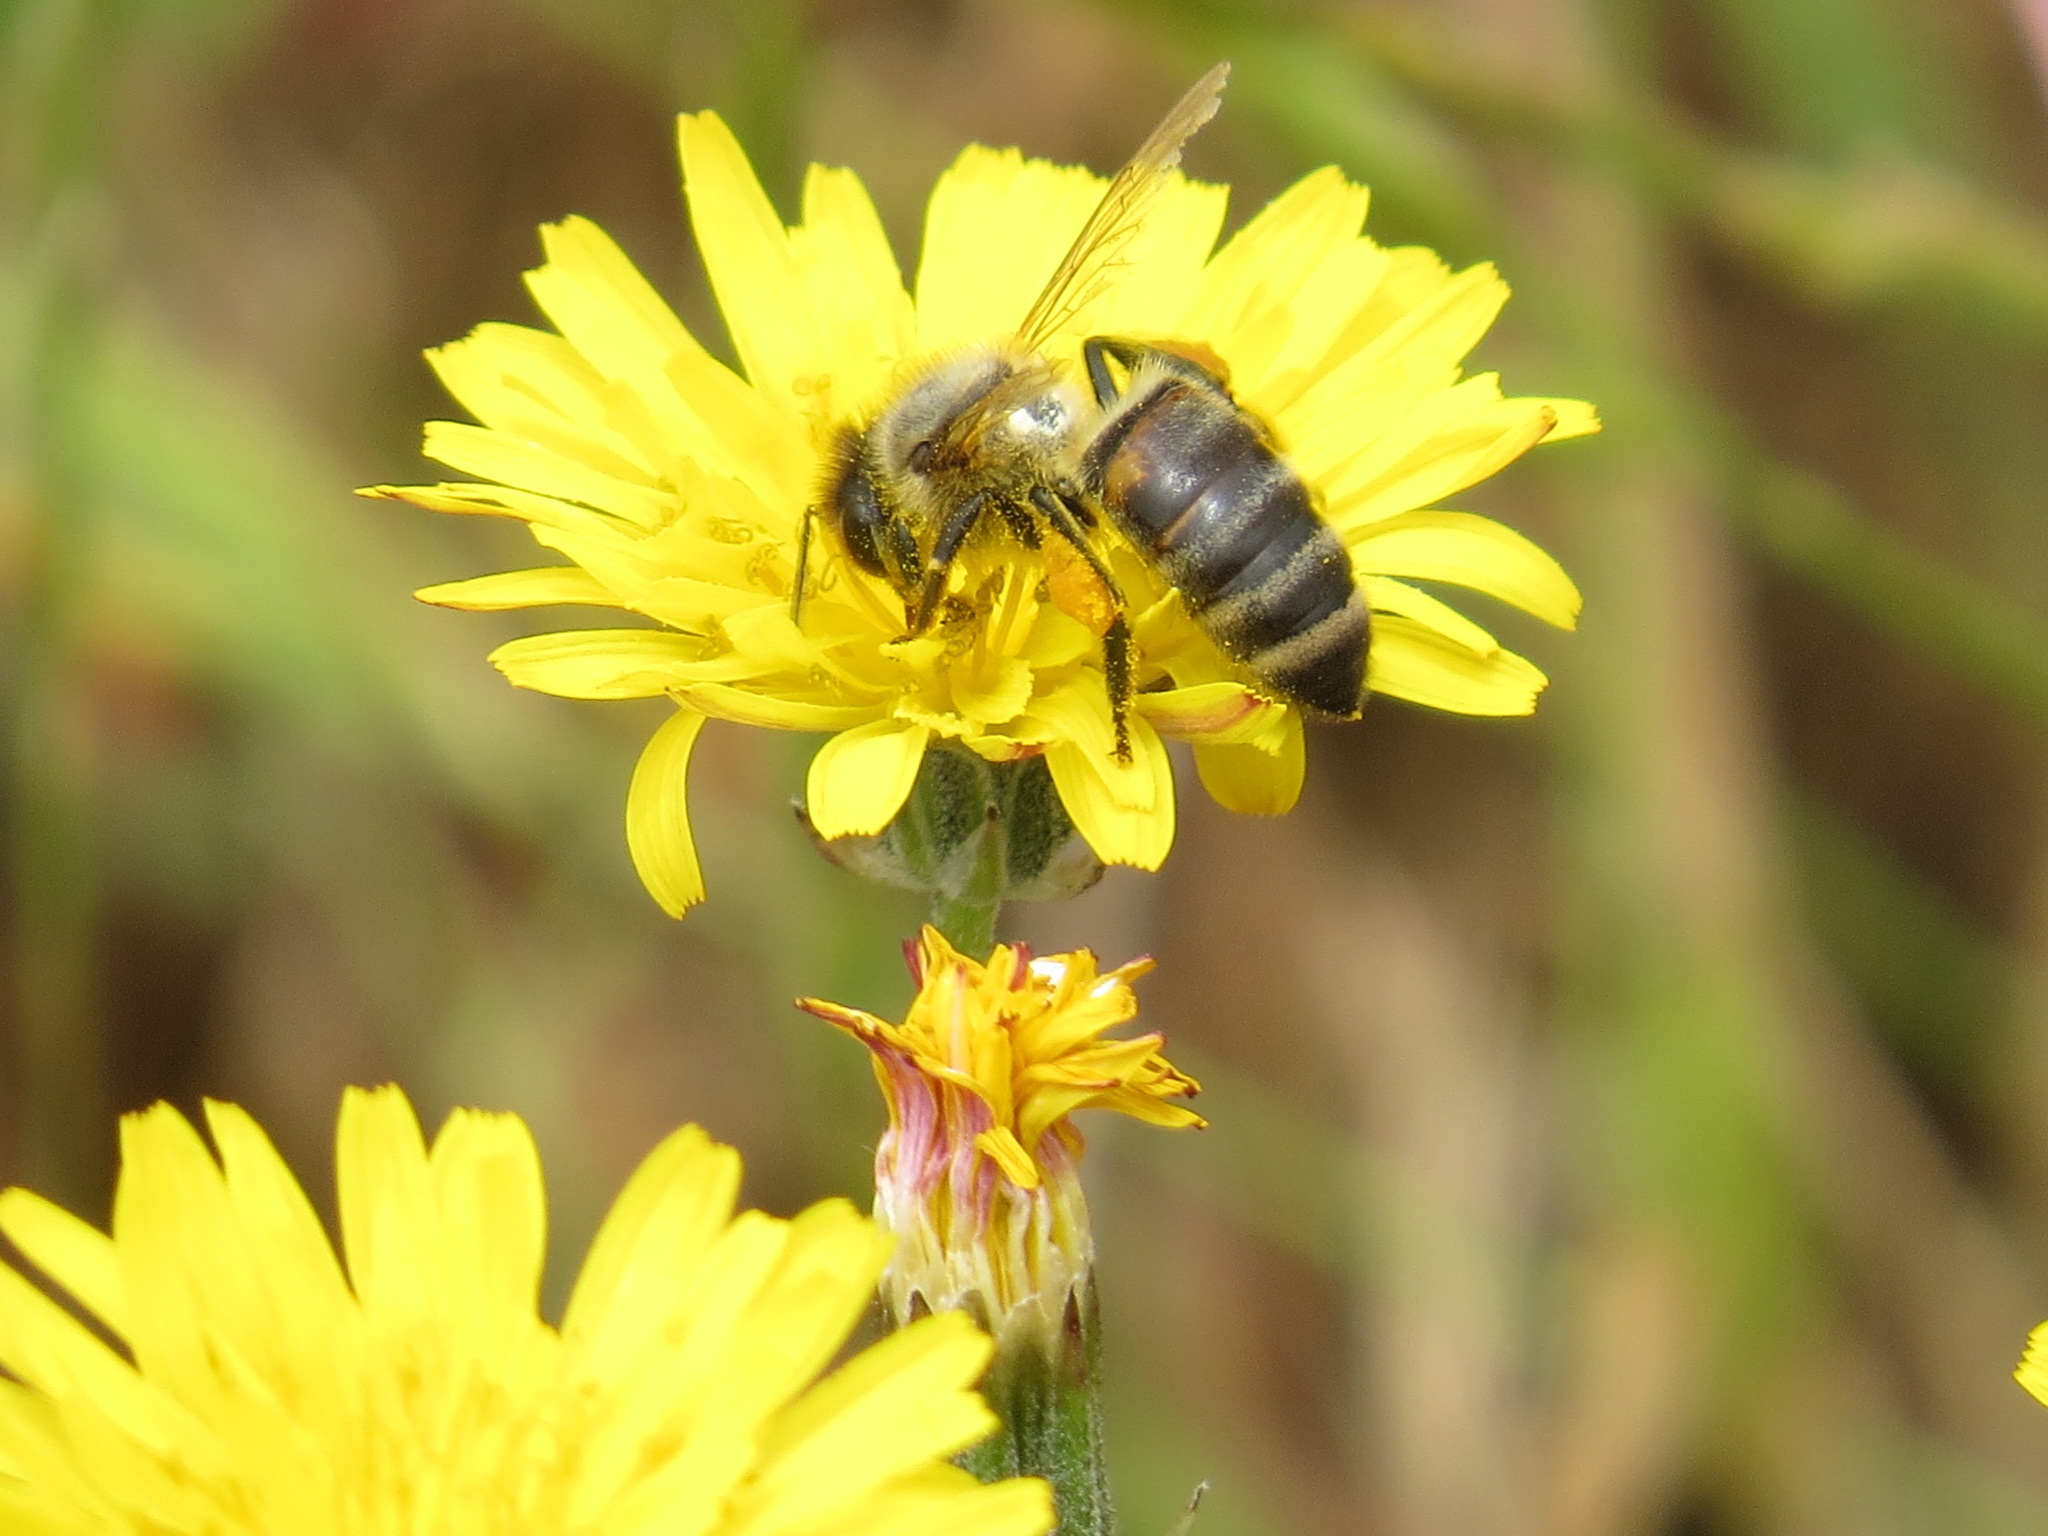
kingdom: Animalia
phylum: Arthropoda
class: Insecta
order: Hymenoptera
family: Apidae
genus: Apis
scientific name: Apis mellifera
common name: Honey bee
